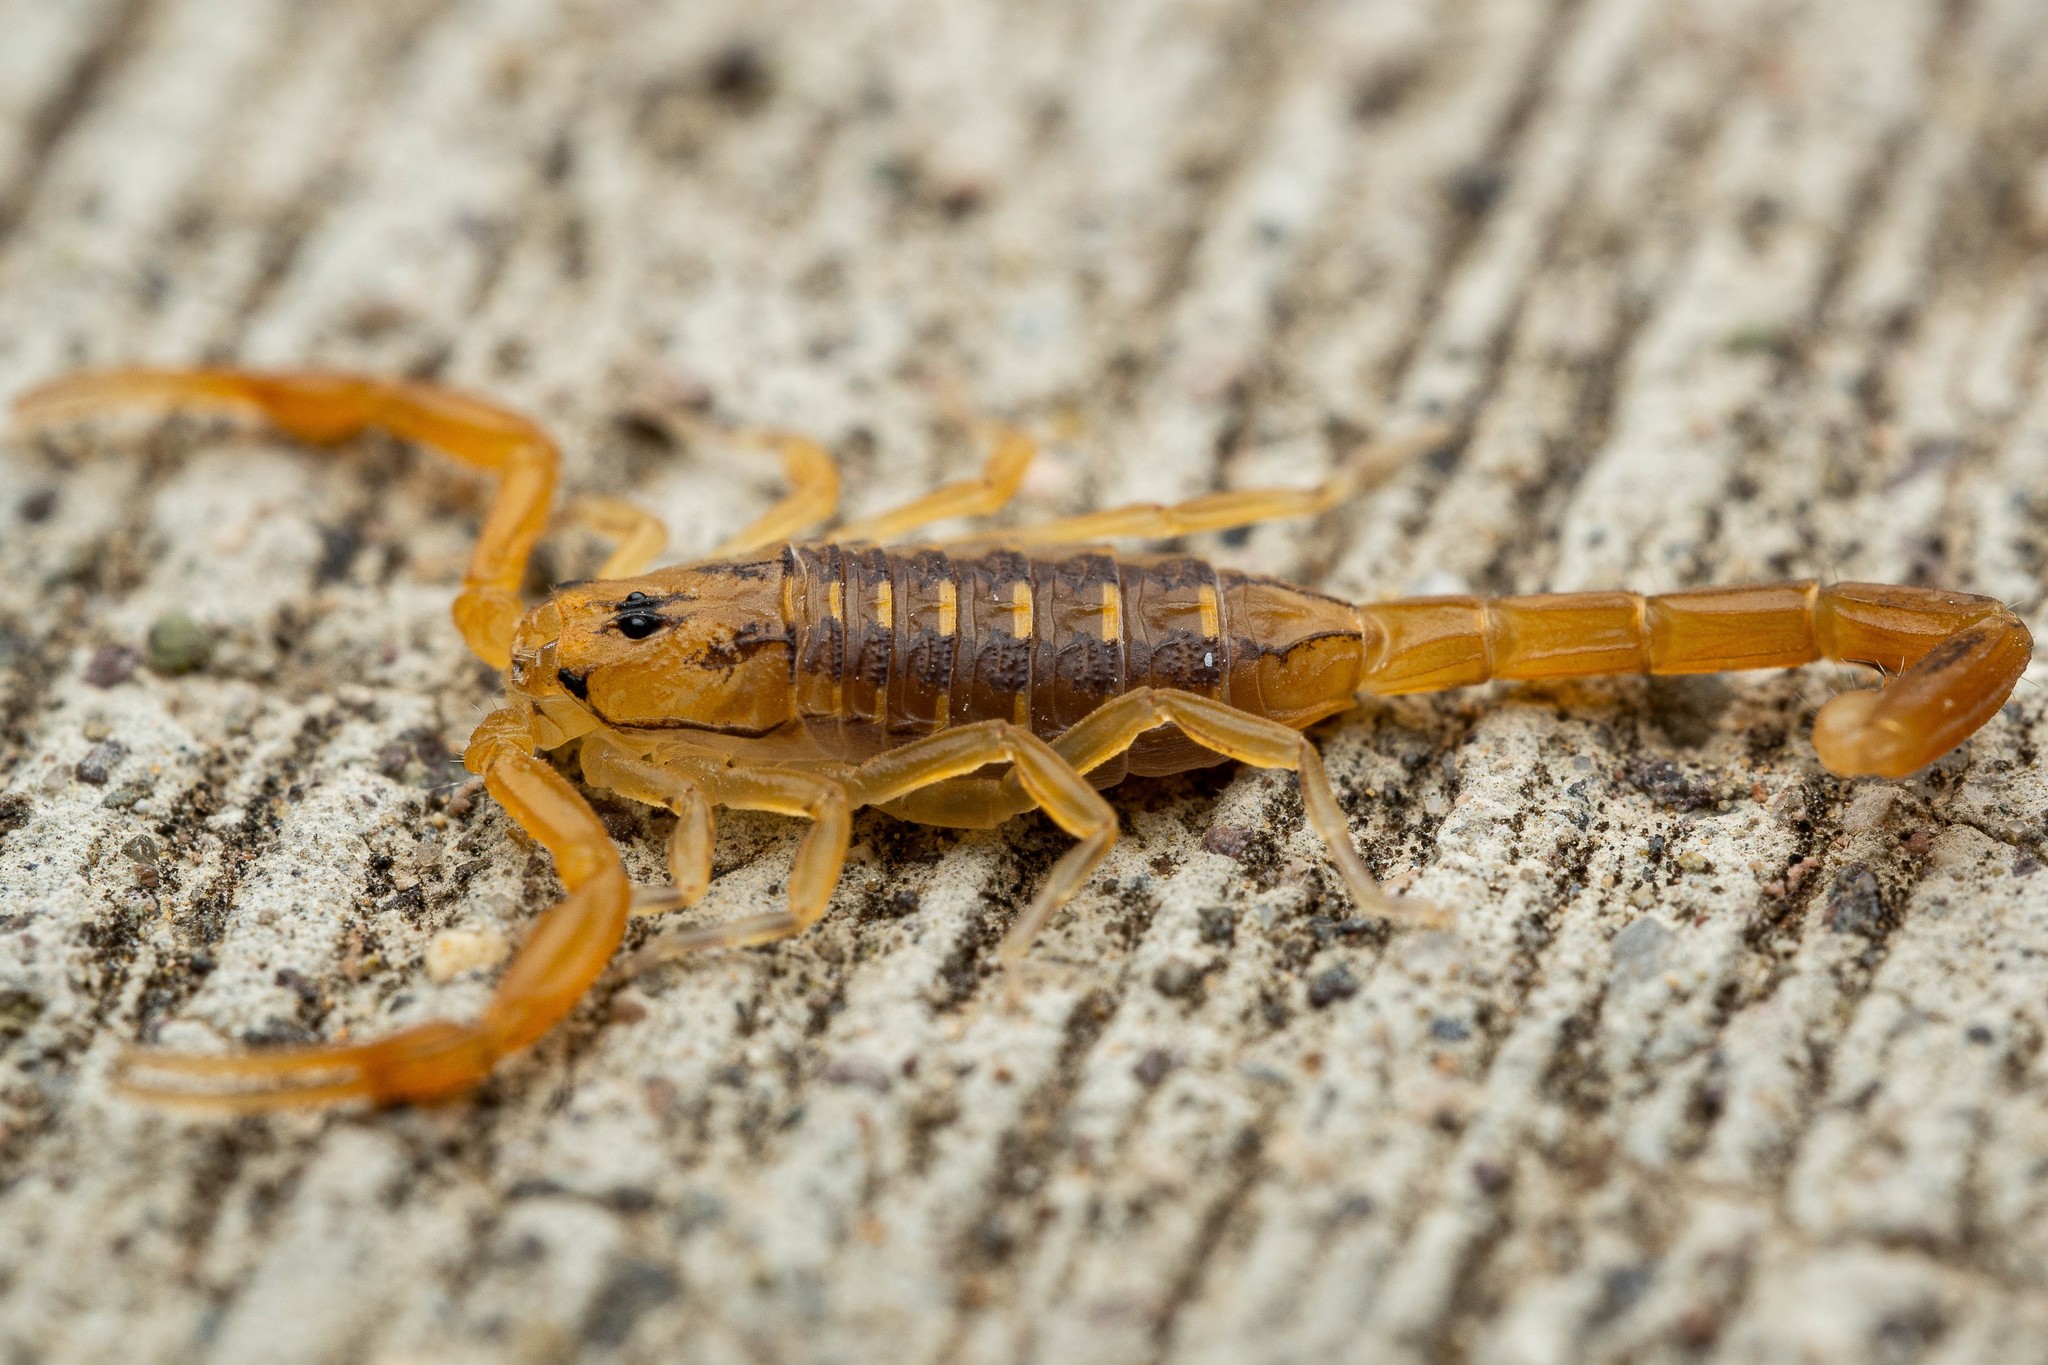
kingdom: Animalia
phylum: Arthropoda
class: Arachnida
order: Scorpiones
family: Buthidae
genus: Centruroides
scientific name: Centruroides sculpturatus
